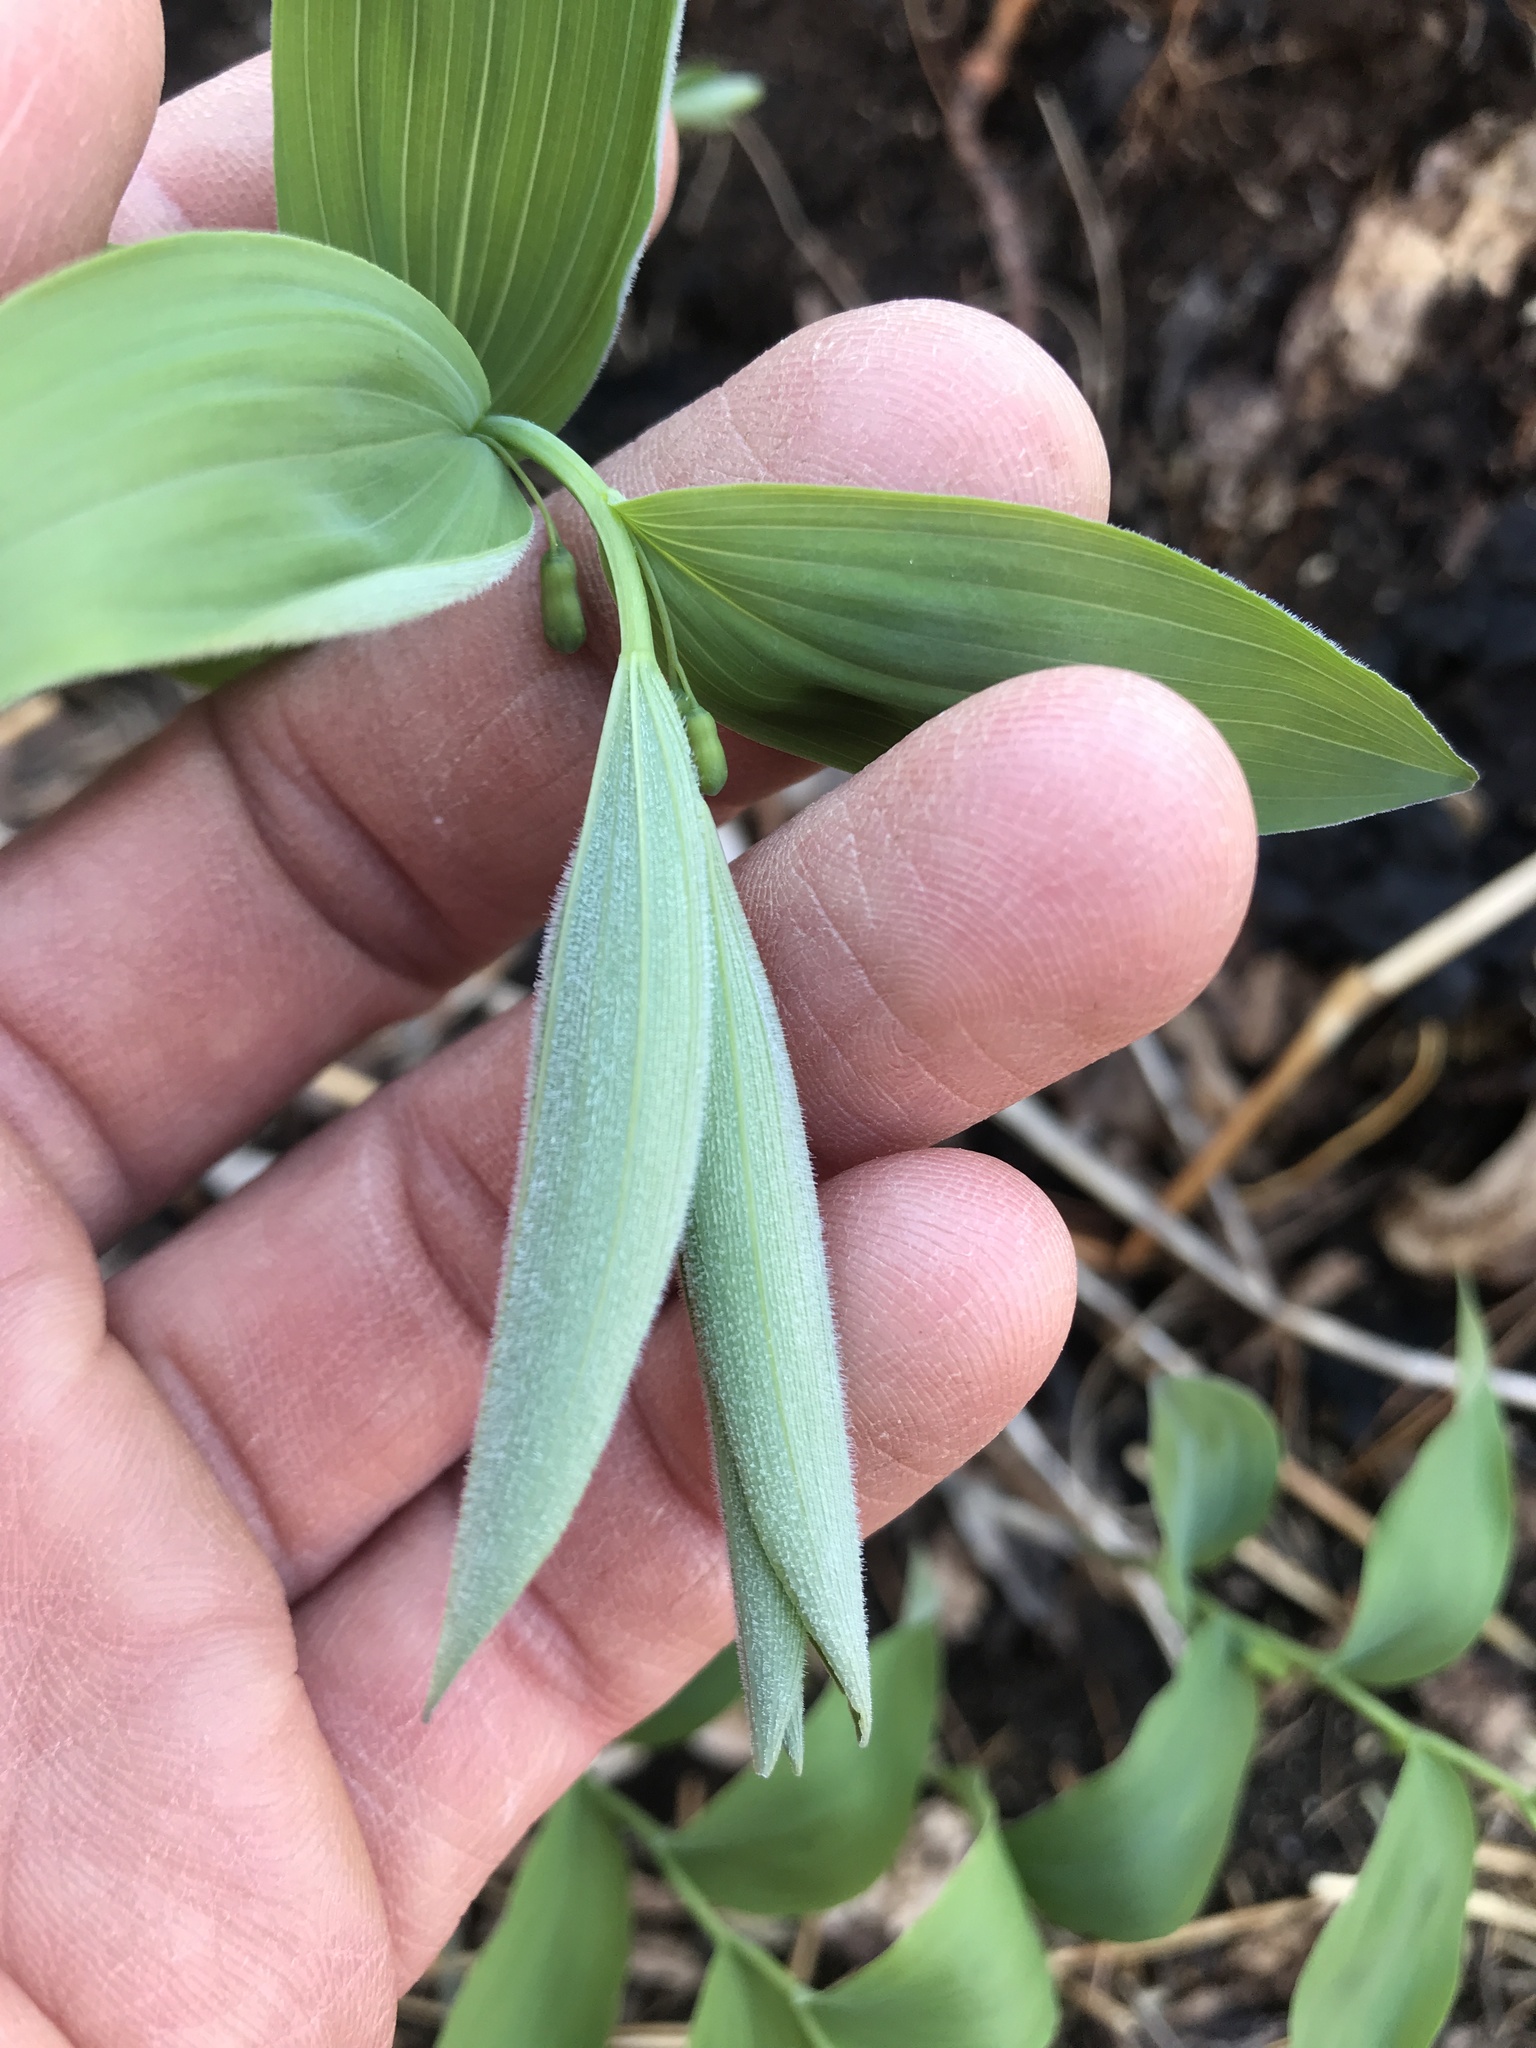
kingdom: Plantae
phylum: Tracheophyta
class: Liliopsida
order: Asparagales
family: Asparagaceae
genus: Polygonatum
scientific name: Polygonatum pubescens
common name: Downy solomon's seal
